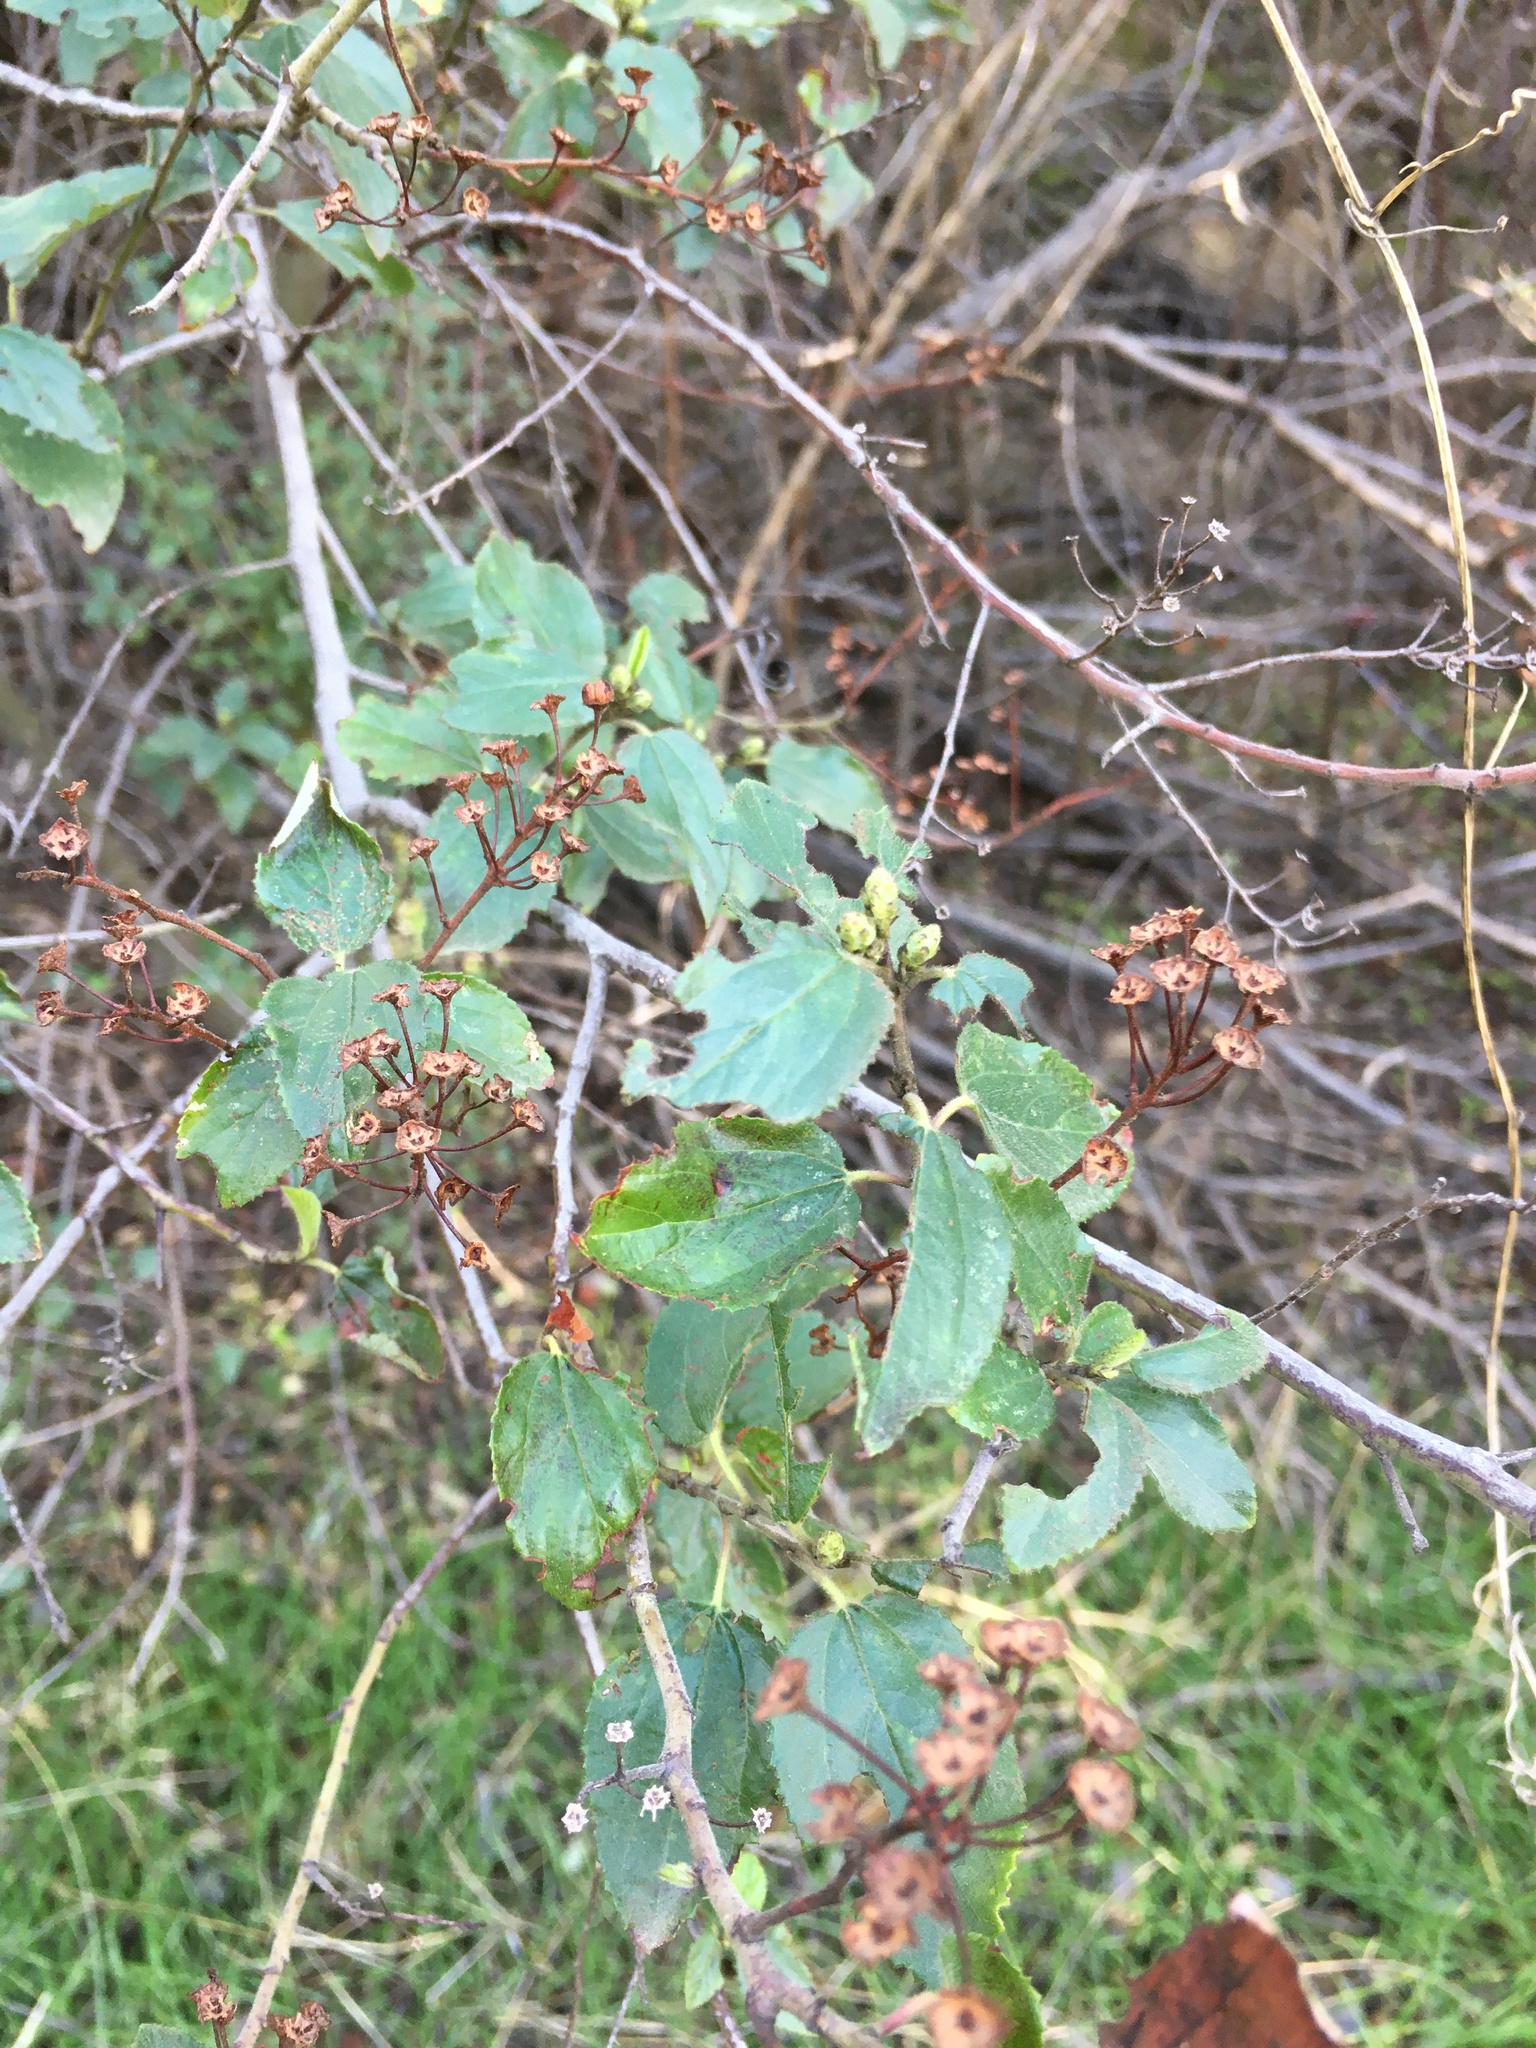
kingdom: Plantae
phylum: Tracheophyta
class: Magnoliopsida
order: Rosales
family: Rhamnaceae
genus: Ceanothus
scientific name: Ceanothus oliganthus
